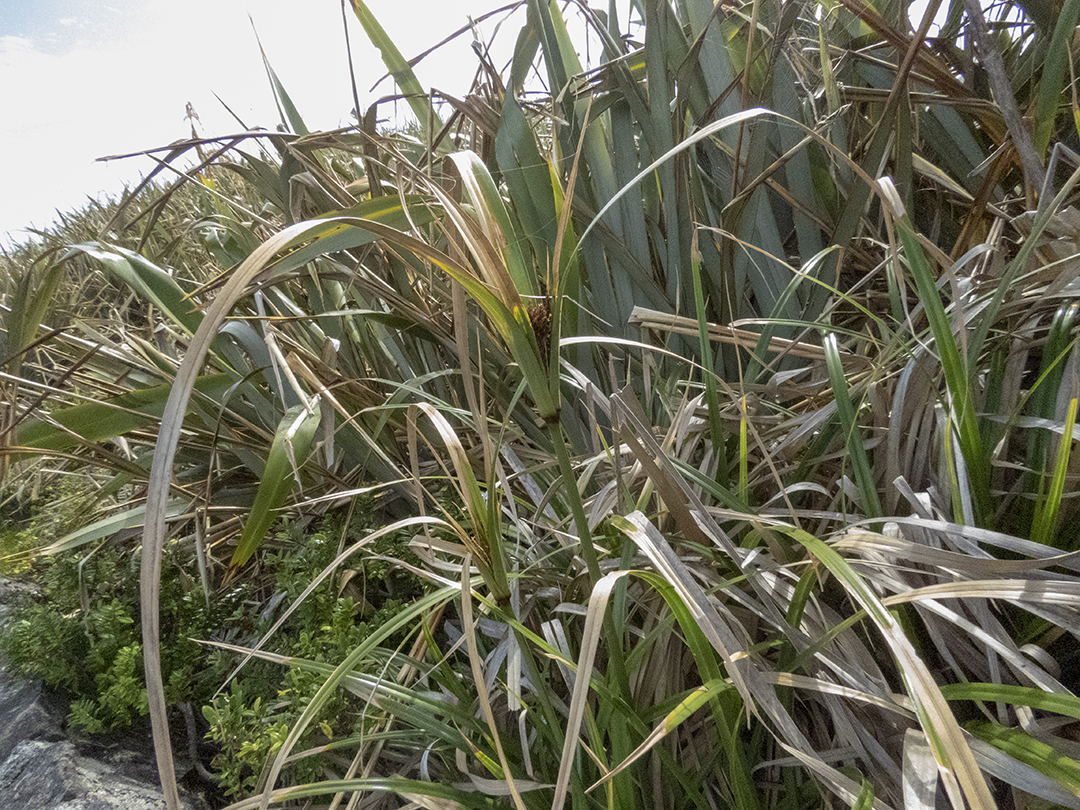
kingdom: Plantae
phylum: Tracheophyta
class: Liliopsida
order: Poales
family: Cyperaceae
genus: Cyperus
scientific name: Cyperus ustulatus
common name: Giant umbrella-sedge
